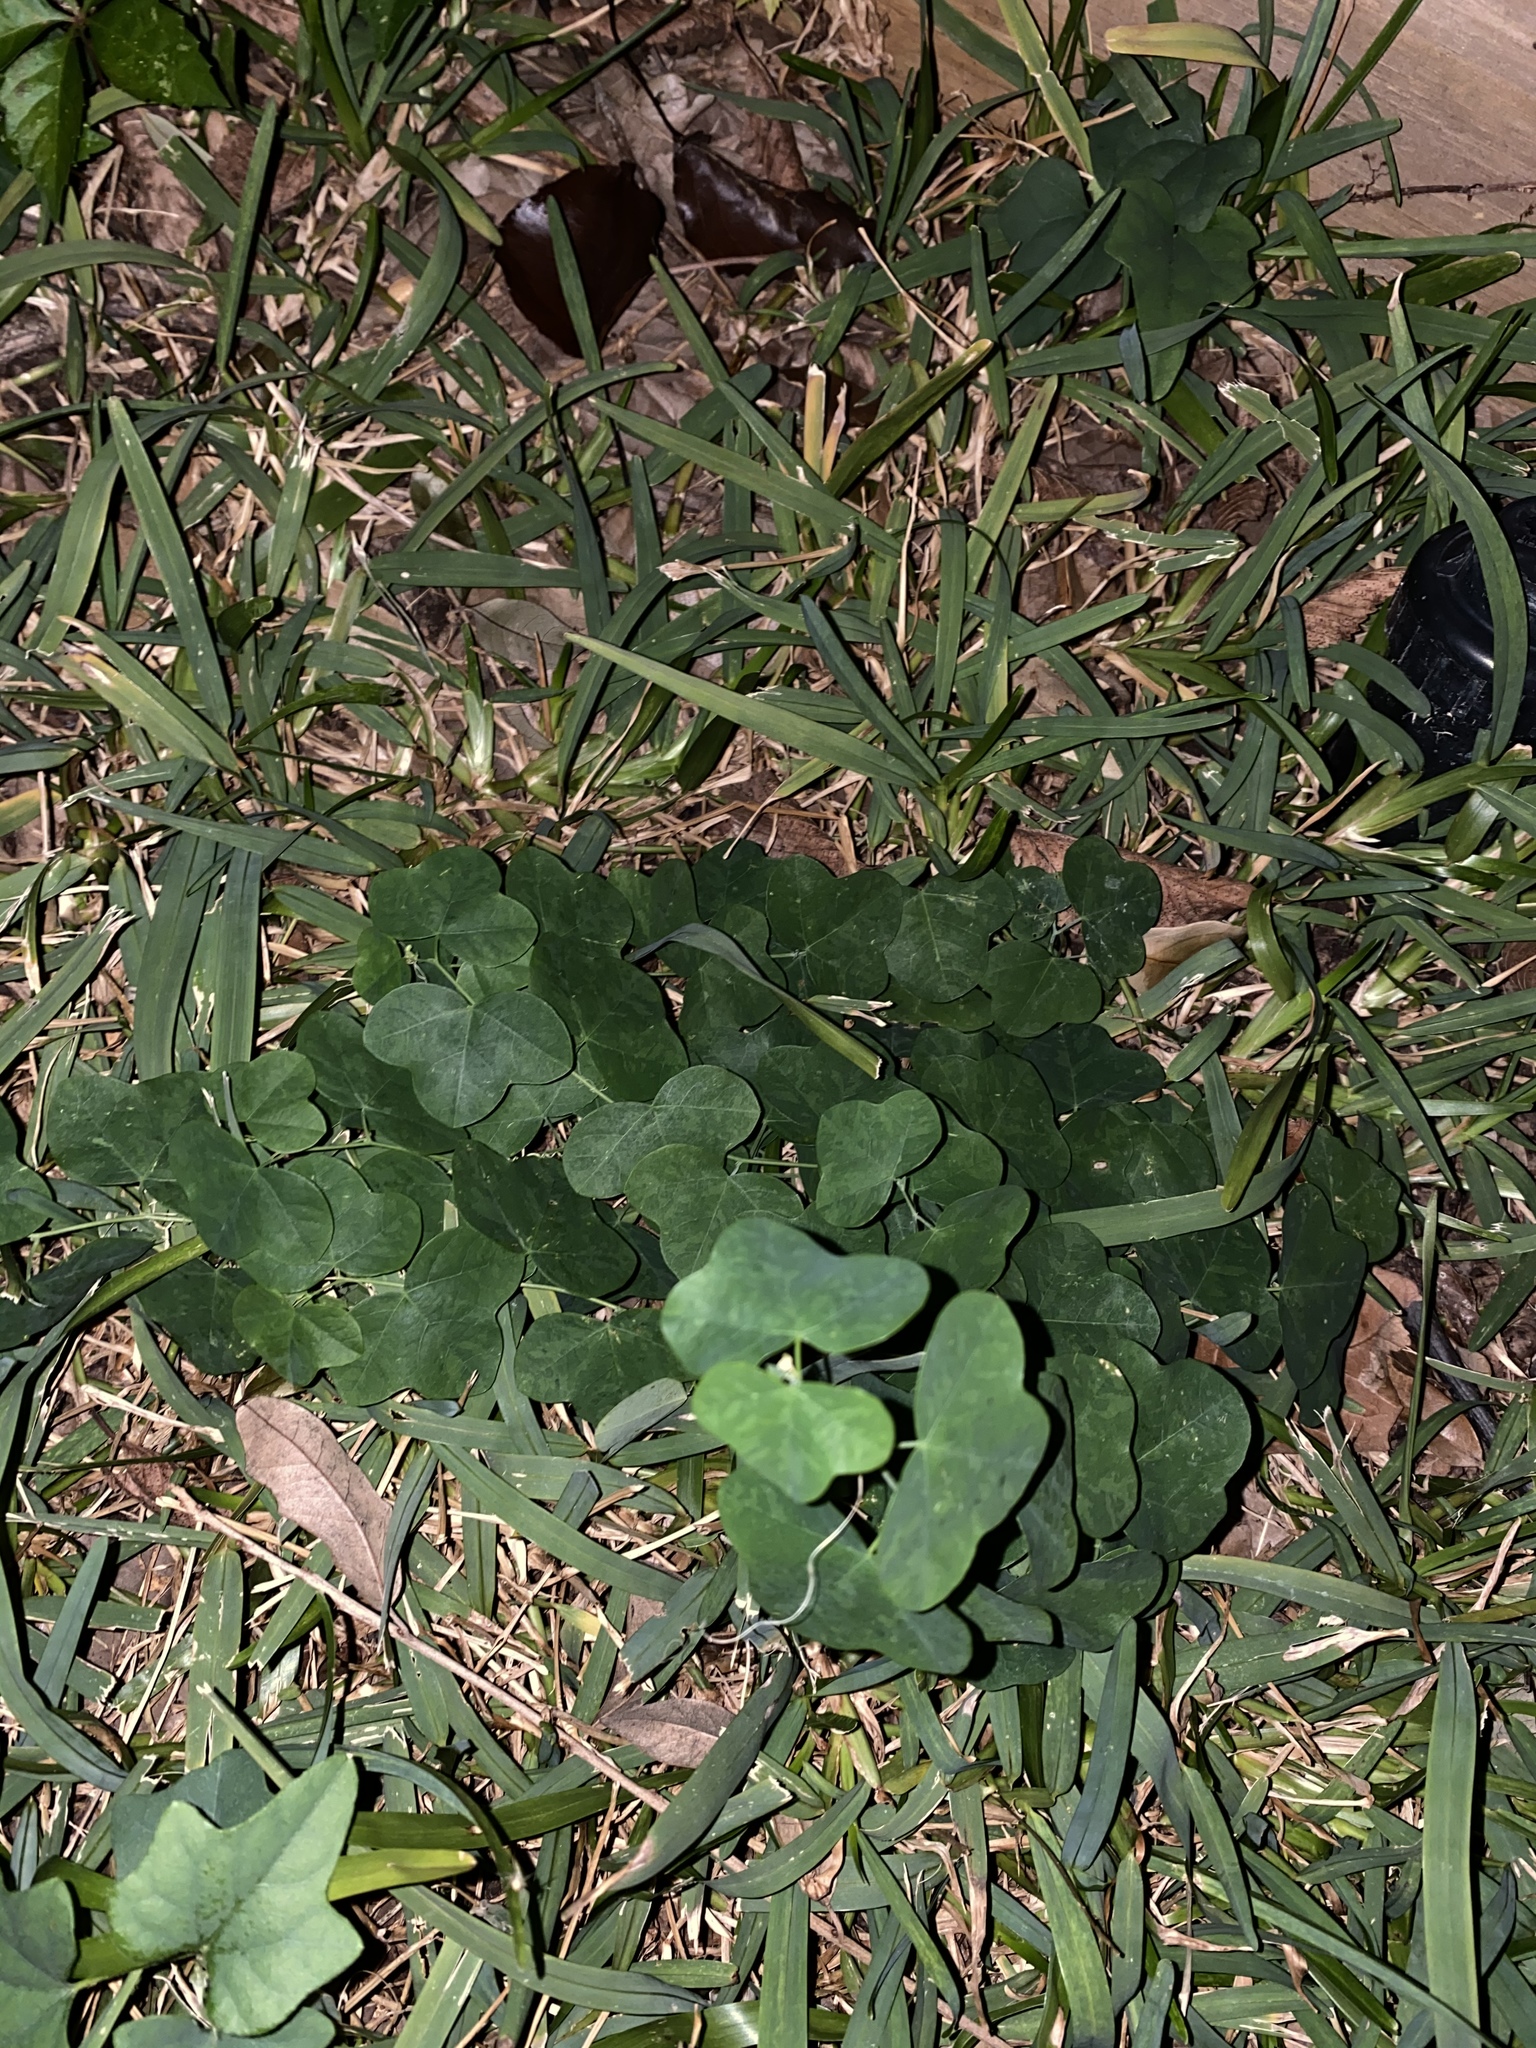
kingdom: Plantae
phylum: Tracheophyta
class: Magnoliopsida
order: Malpighiales
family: Passifloraceae
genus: Passiflora
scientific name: Passiflora lutea
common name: Yellow passionflower
